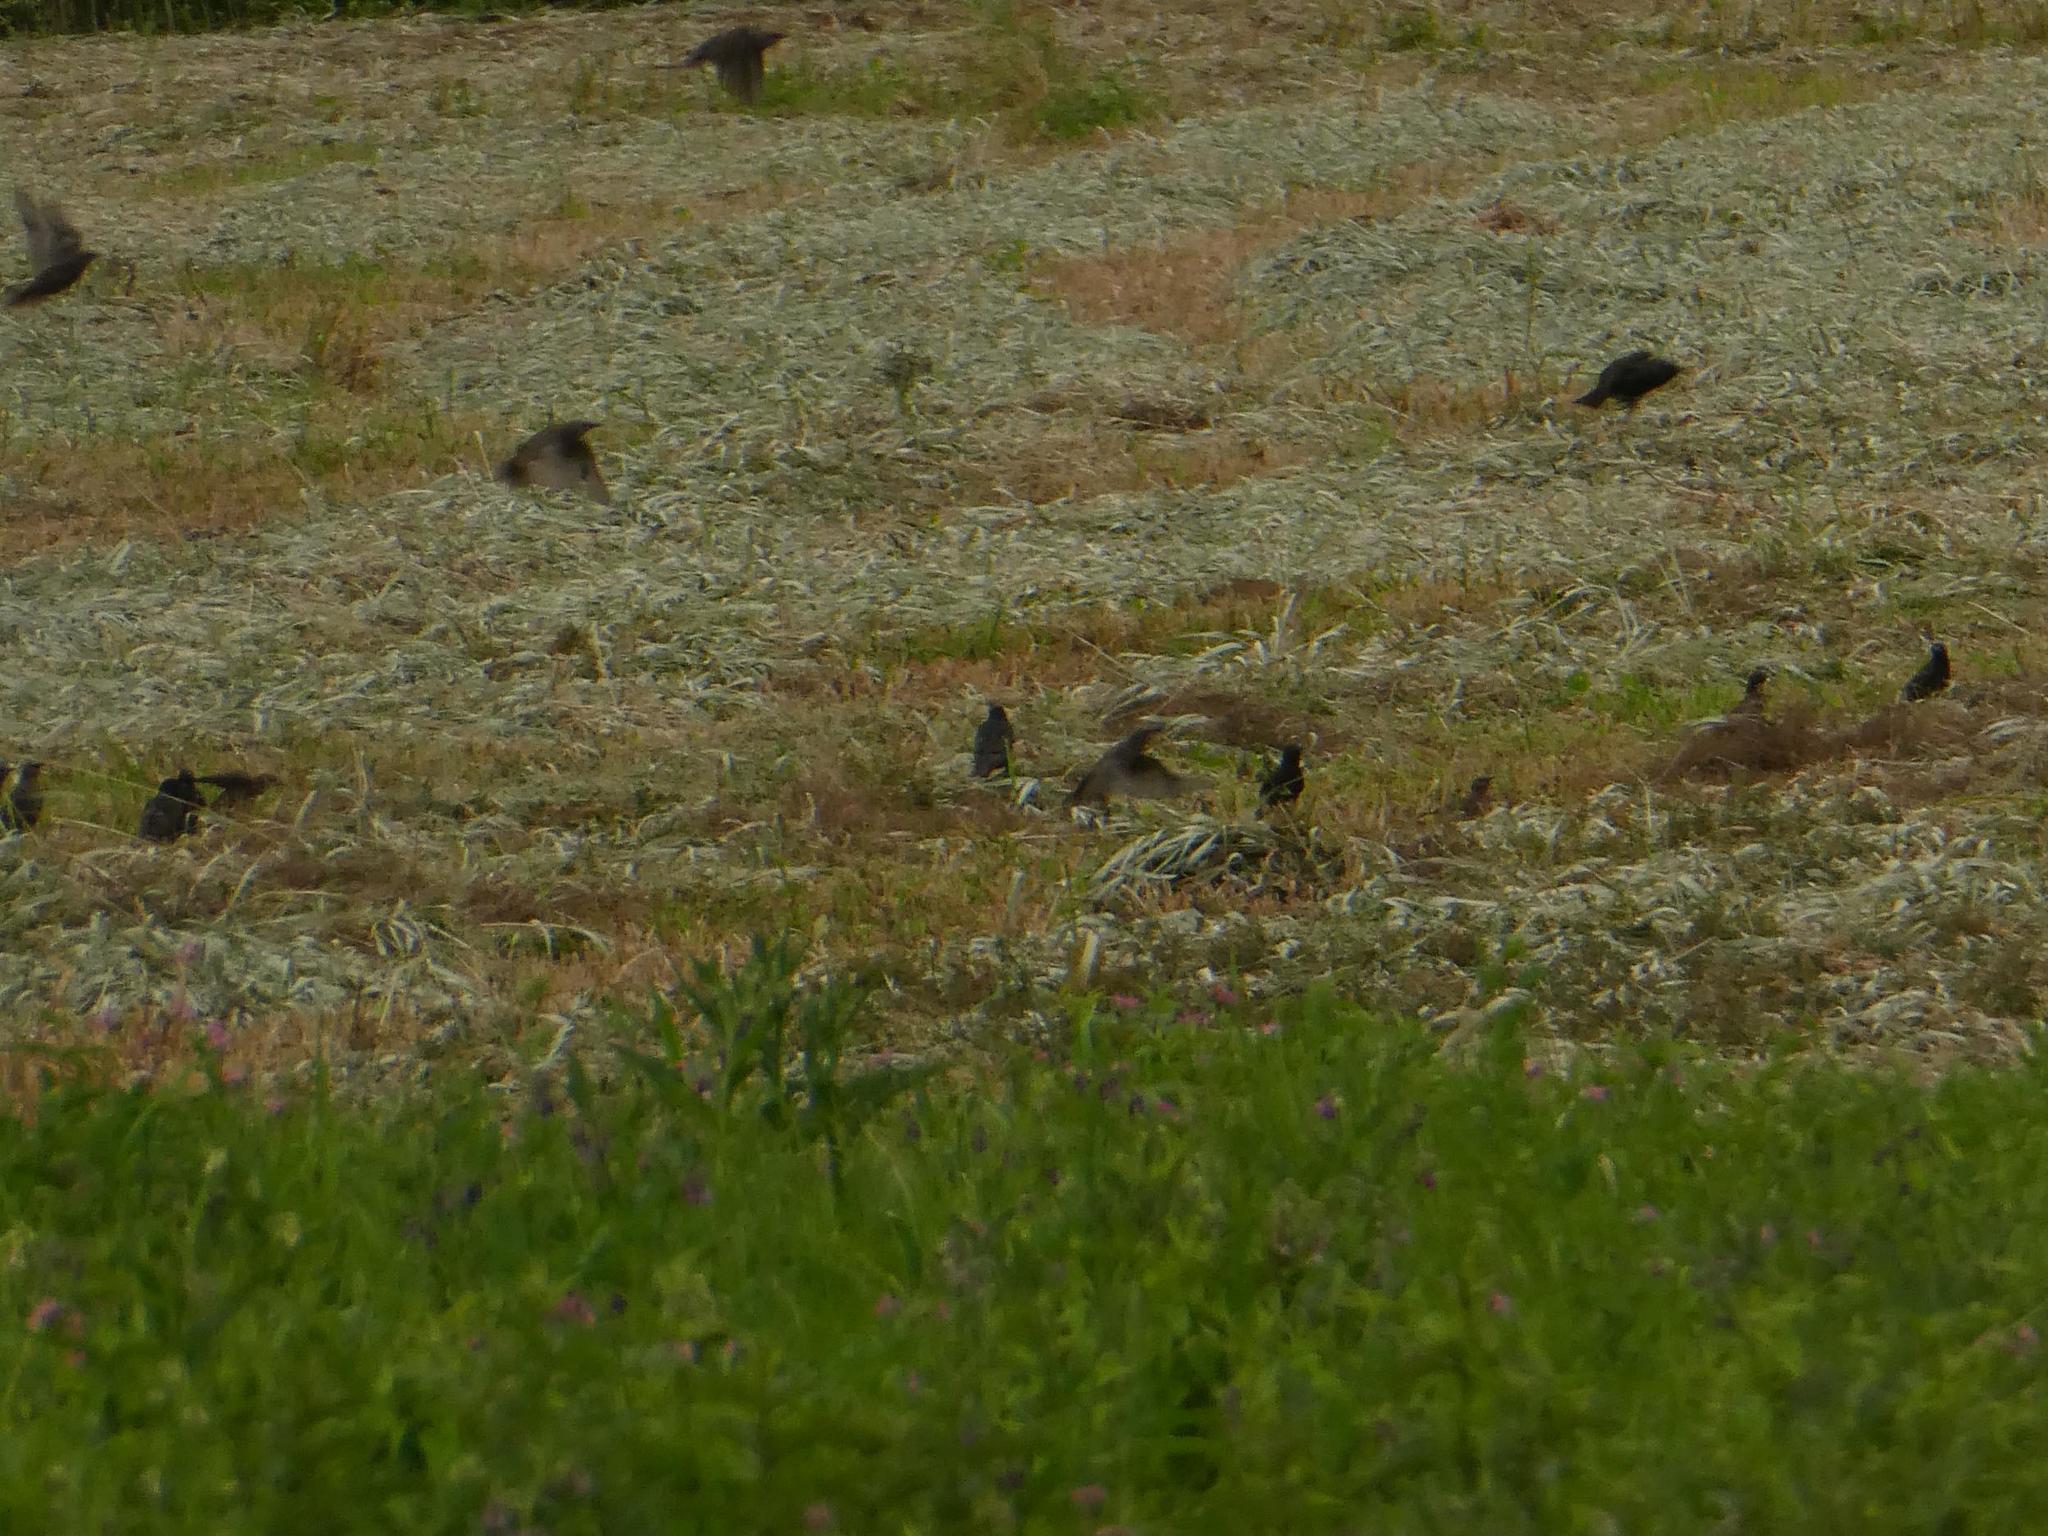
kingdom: Animalia
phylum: Chordata
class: Aves
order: Passeriformes
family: Sturnidae
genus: Sturnus
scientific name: Sturnus vulgaris
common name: Common starling
